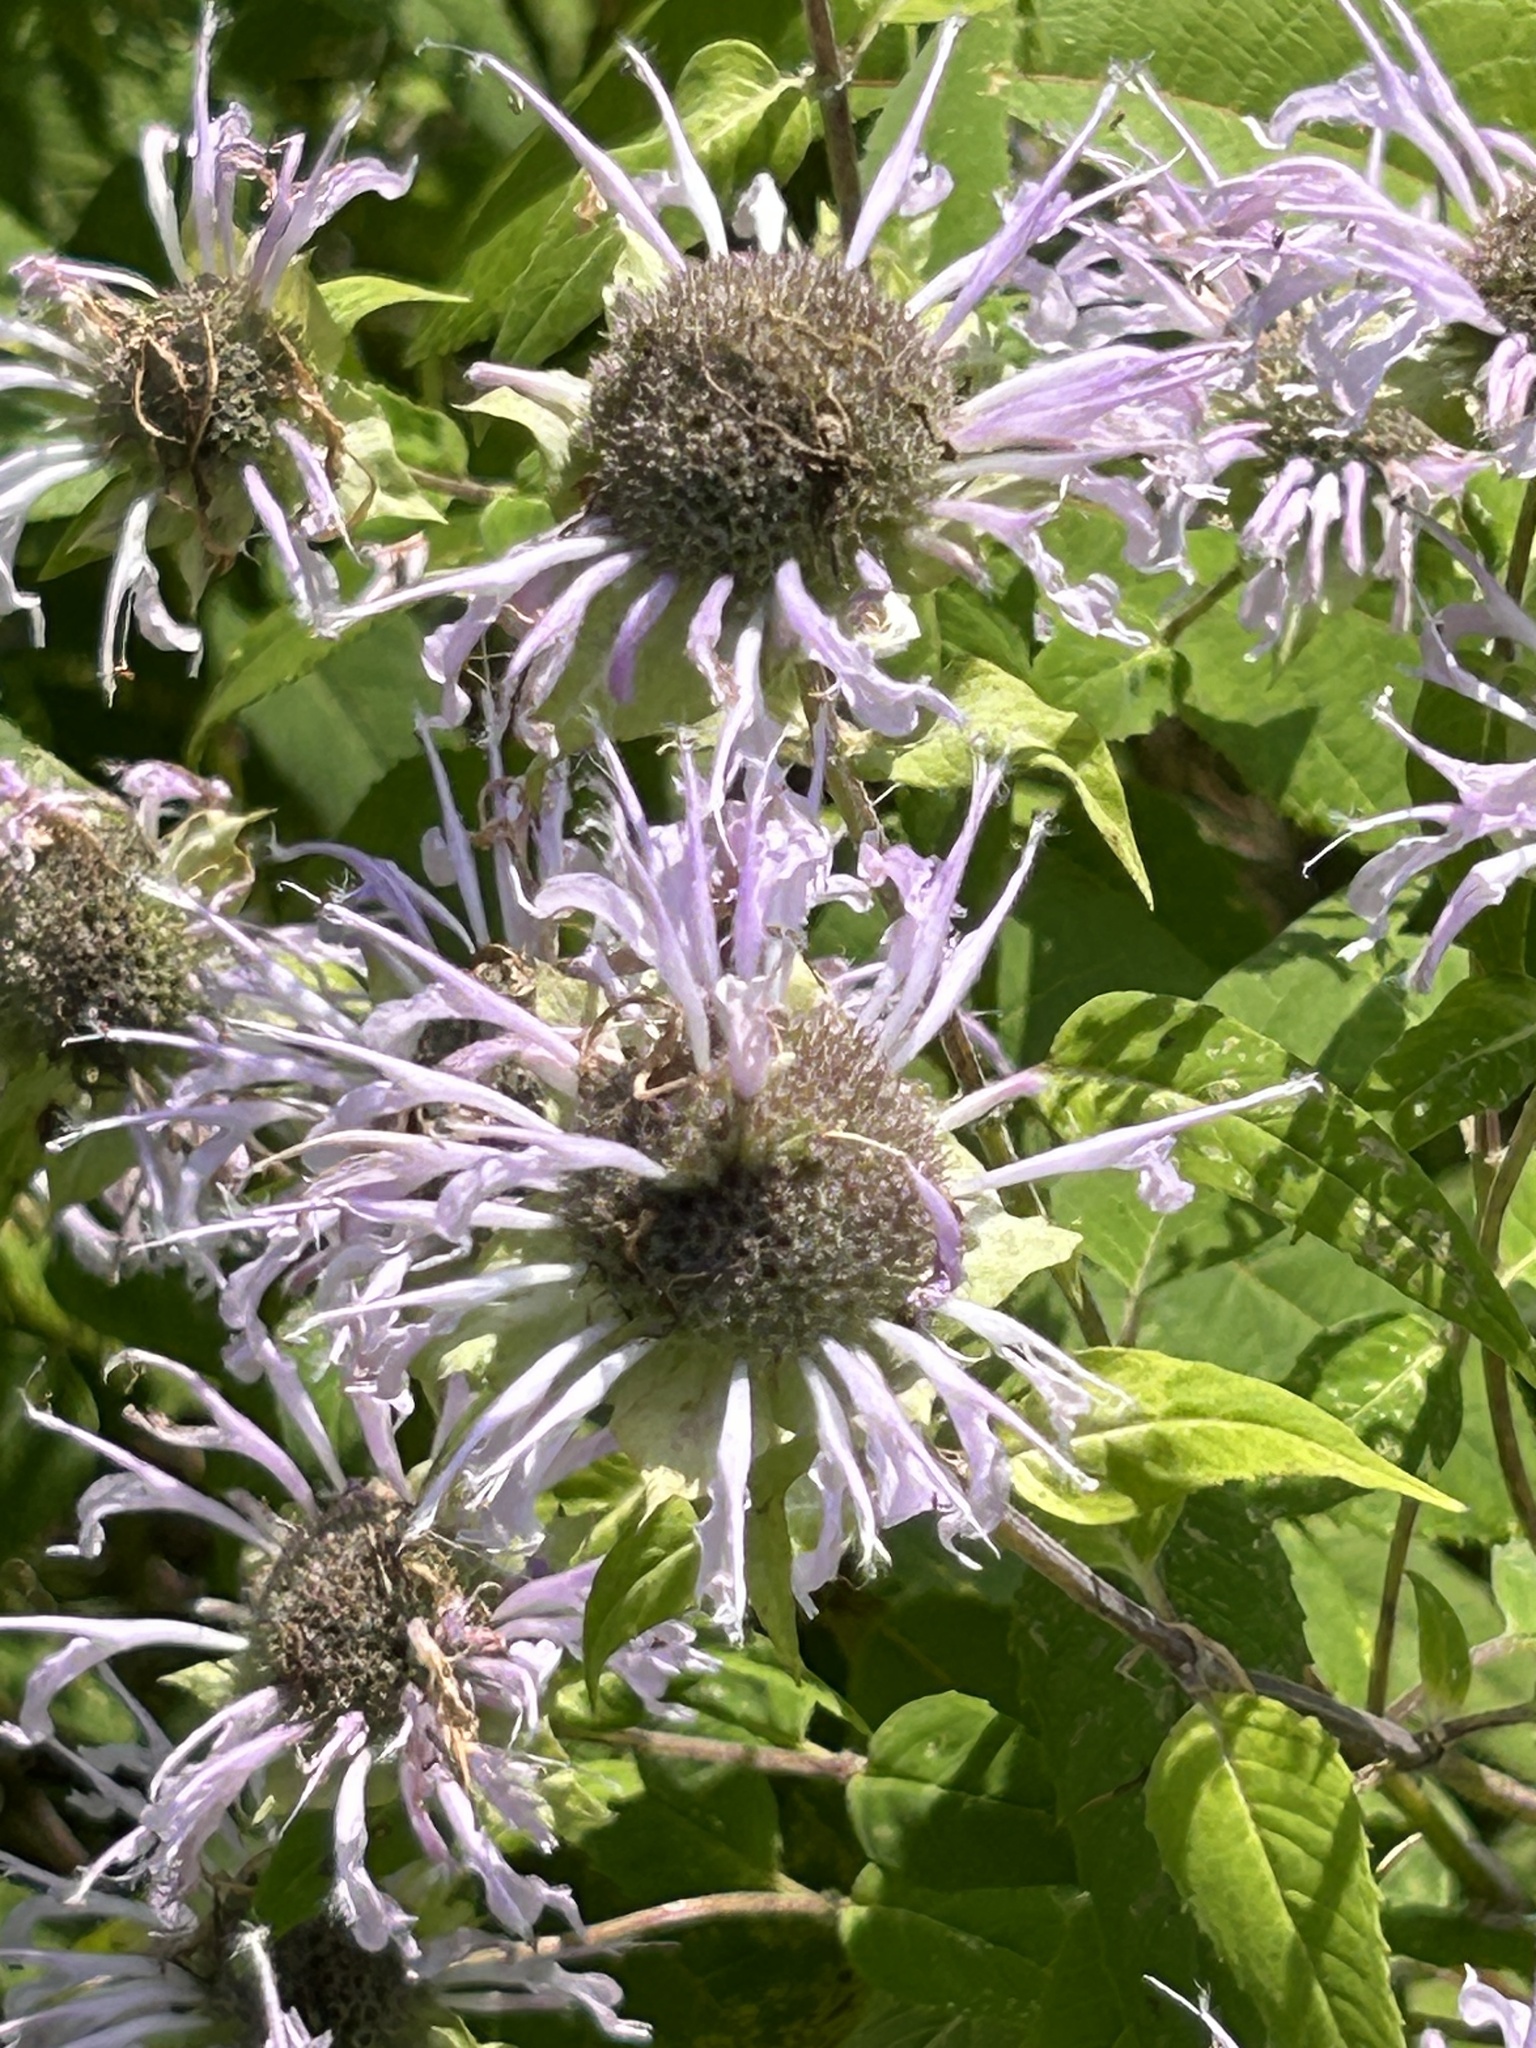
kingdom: Plantae
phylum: Tracheophyta
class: Magnoliopsida
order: Lamiales
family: Lamiaceae
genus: Monarda
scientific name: Monarda fistulosa
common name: Purple beebalm
